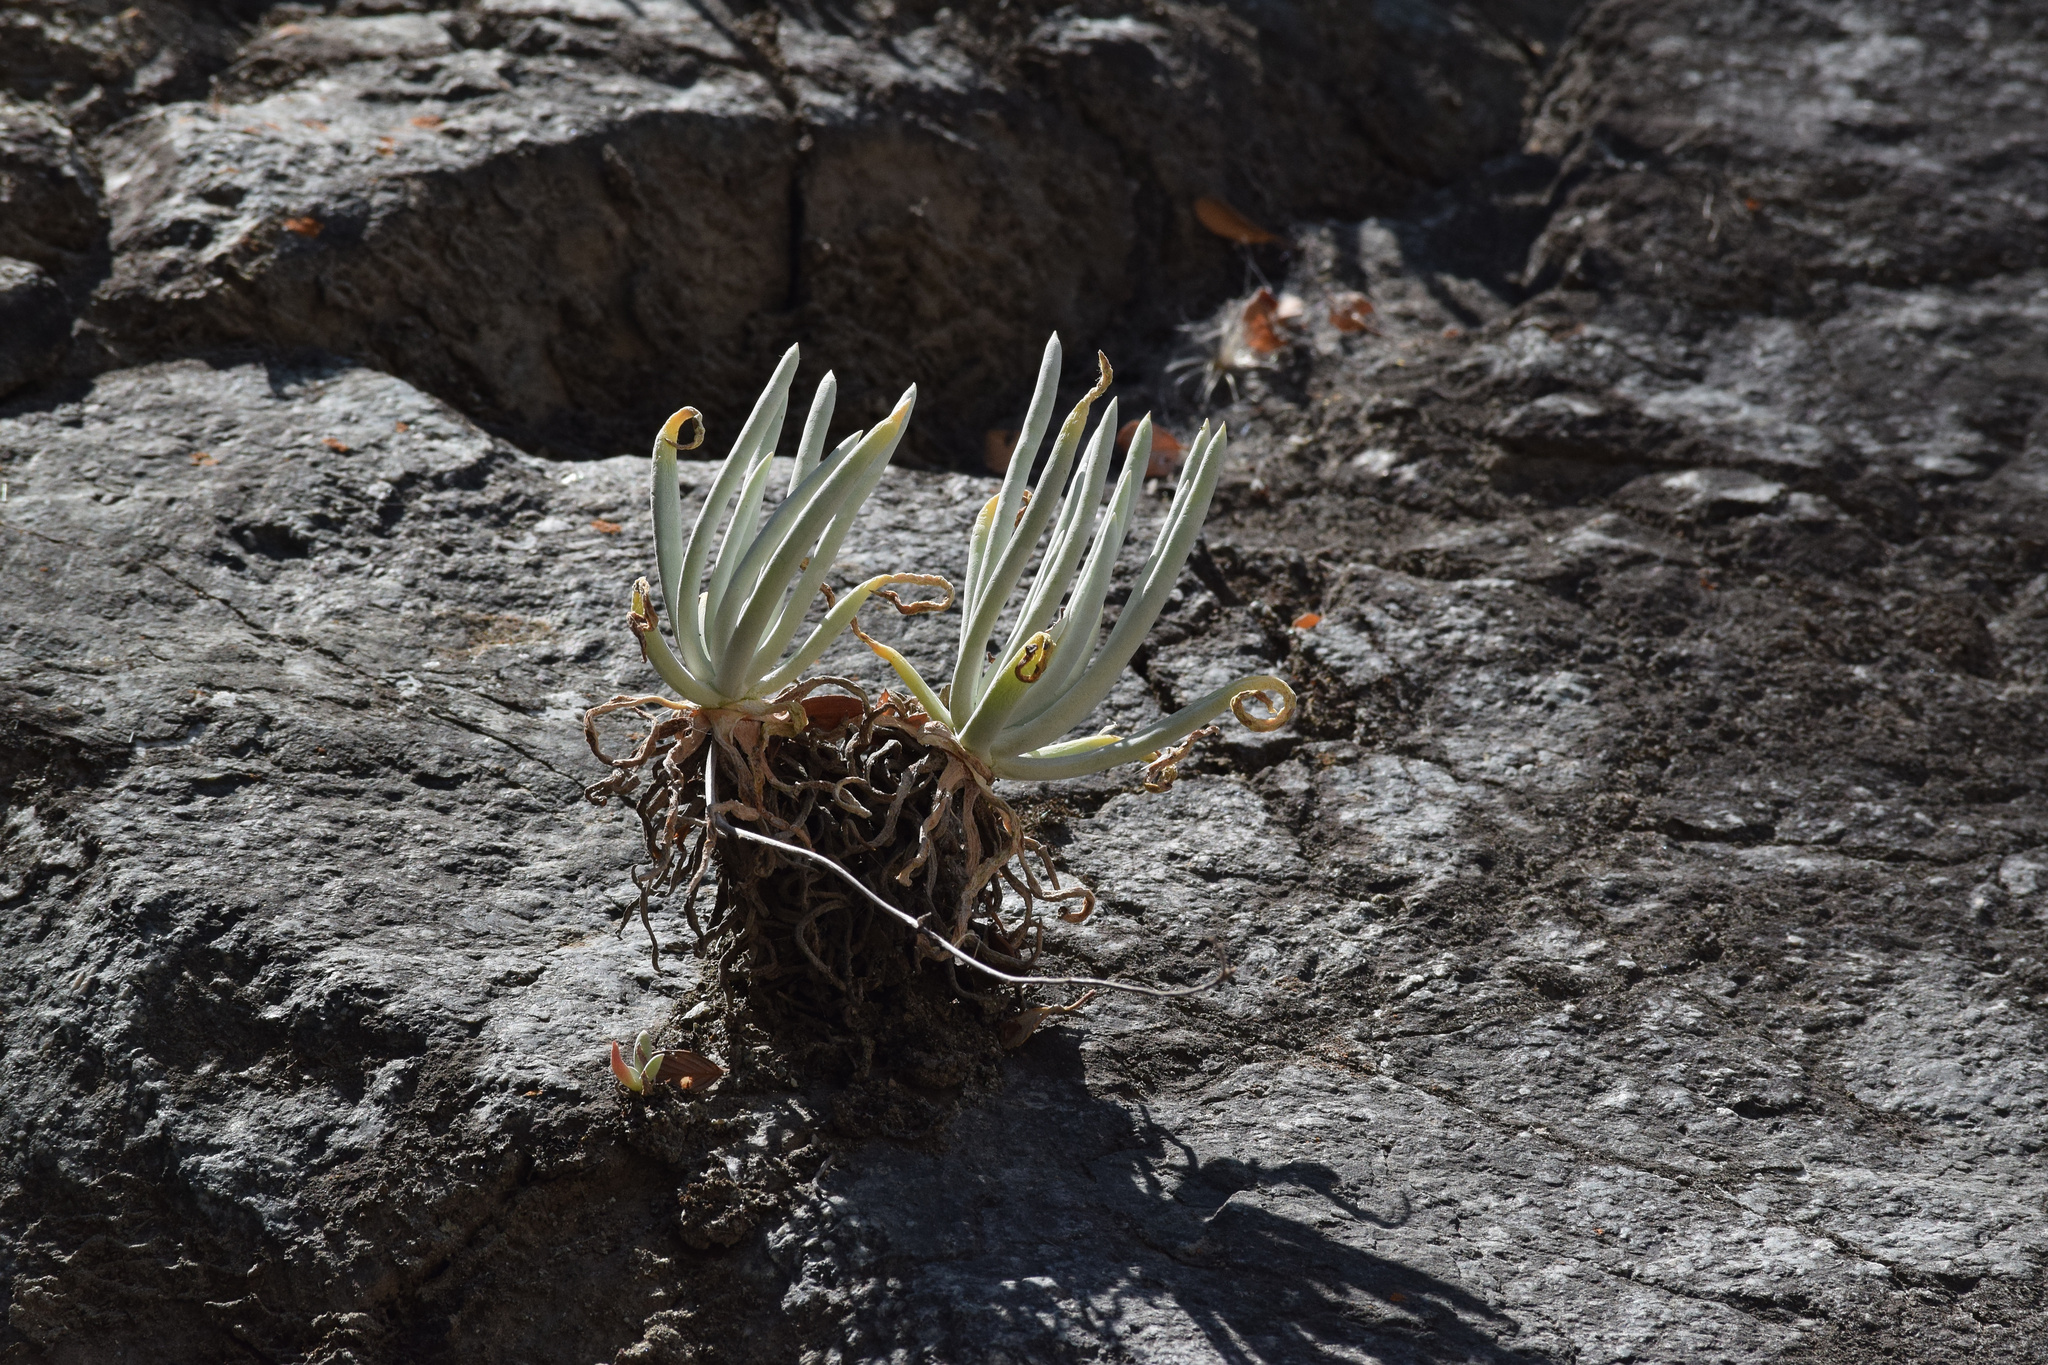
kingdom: Plantae
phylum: Tracheophyta
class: Magnoliopsida
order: Saxifragales
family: Crassulaceae
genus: Dudleya
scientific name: Dudleya densiflora
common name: San gabriel mountains dudleya
